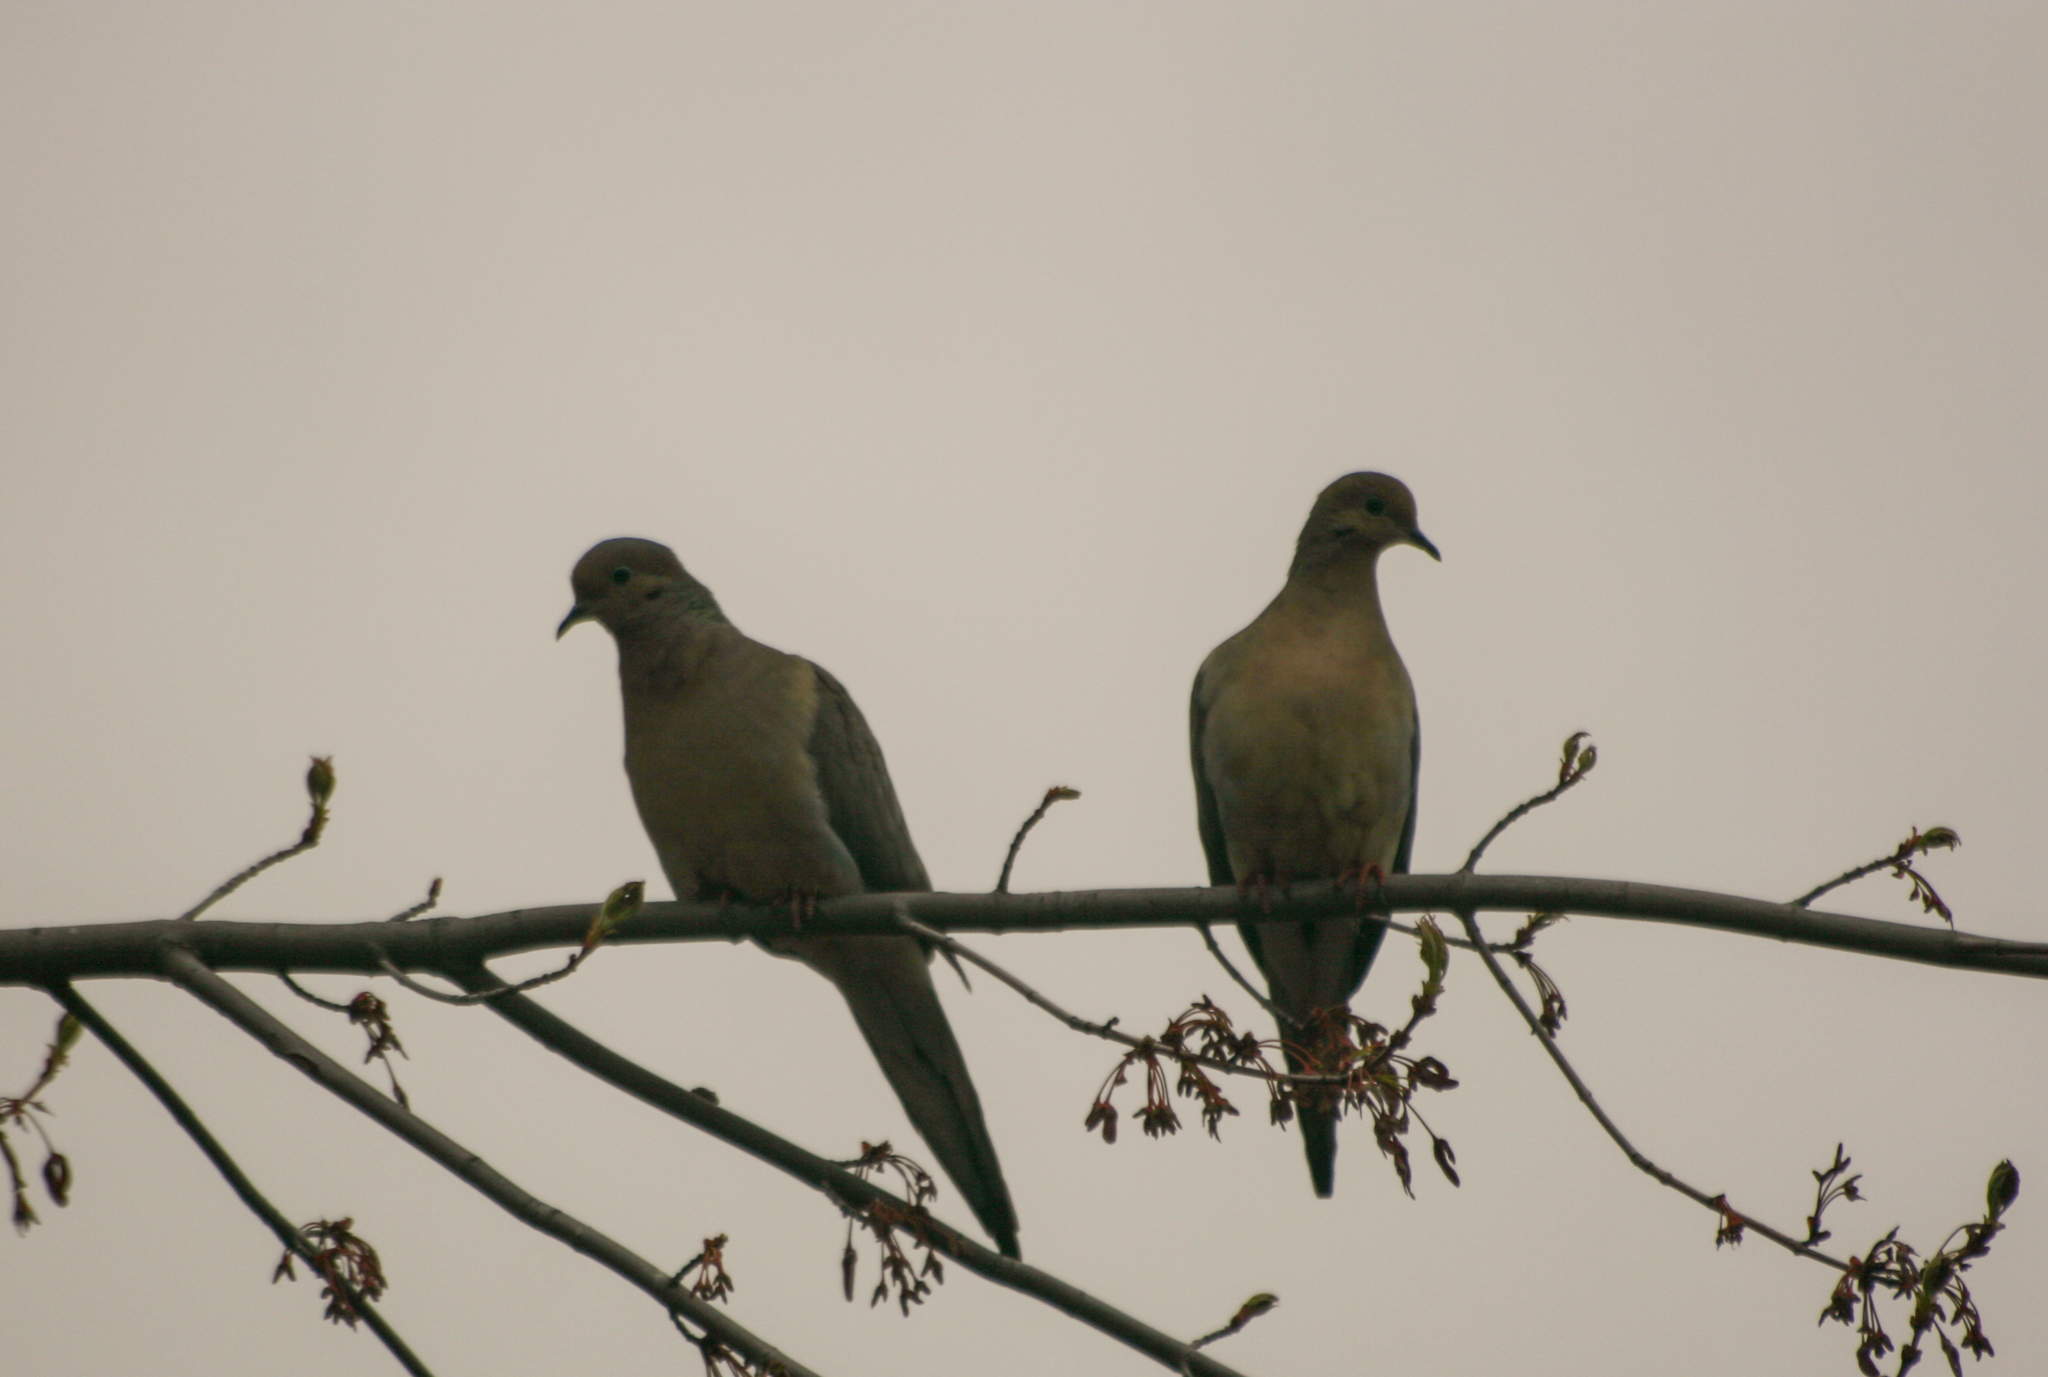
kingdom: Animalia
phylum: Chordata
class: Aves
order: Columbiformes
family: Columbidae
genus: Zenaida
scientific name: Zenaida macroura
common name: Mourning dove
